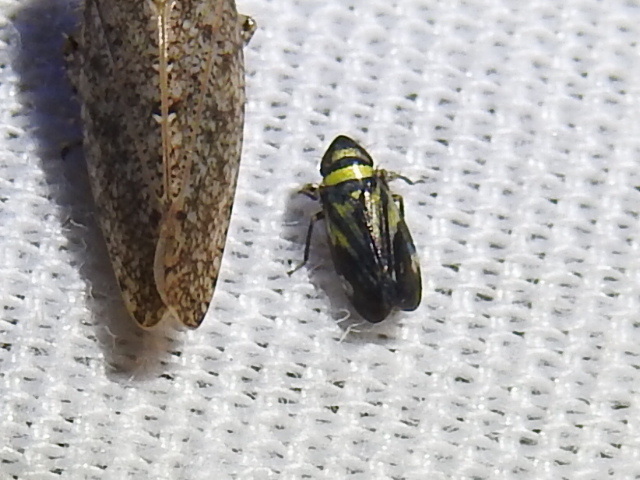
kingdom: Animalia
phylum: Arthropoda
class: Insecta
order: Hemiptera
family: Cicadellidae
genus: Stirellus
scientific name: Stirellus bicolor
